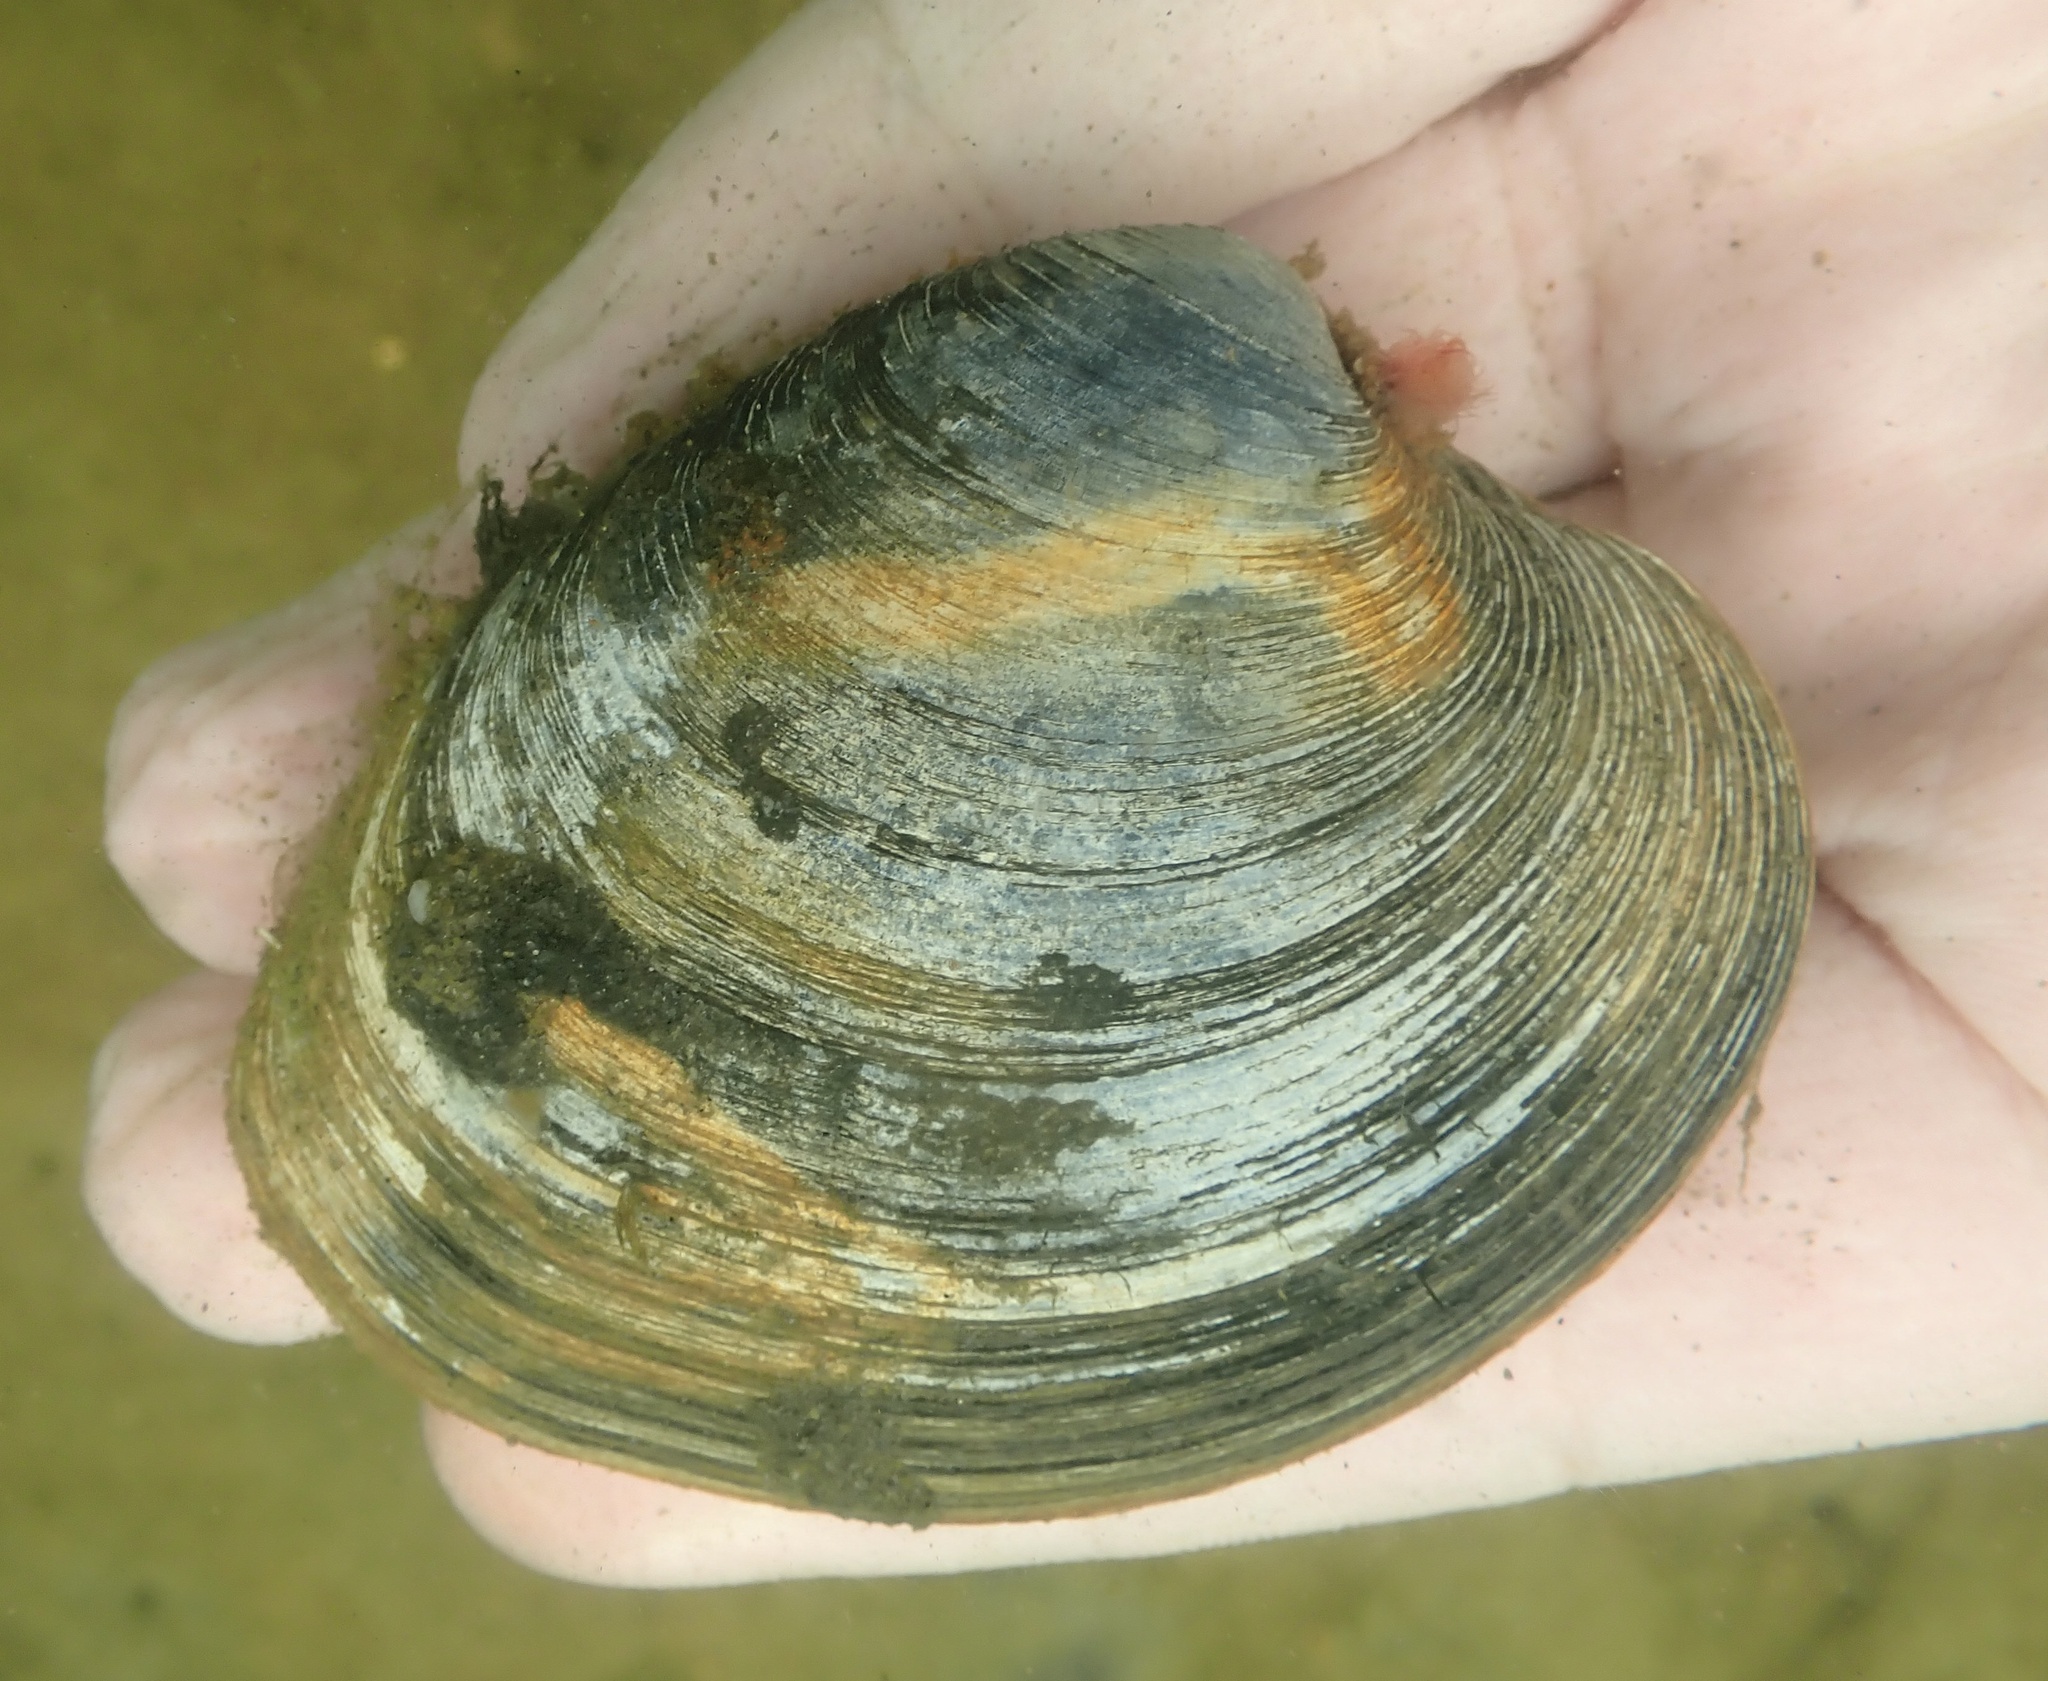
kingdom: Animalia
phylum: Mollusca
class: Bivalvia
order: Venerida
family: Veneridae
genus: Mercenaria
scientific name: Mercenaria mercenaria
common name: American hard-shelled clam
